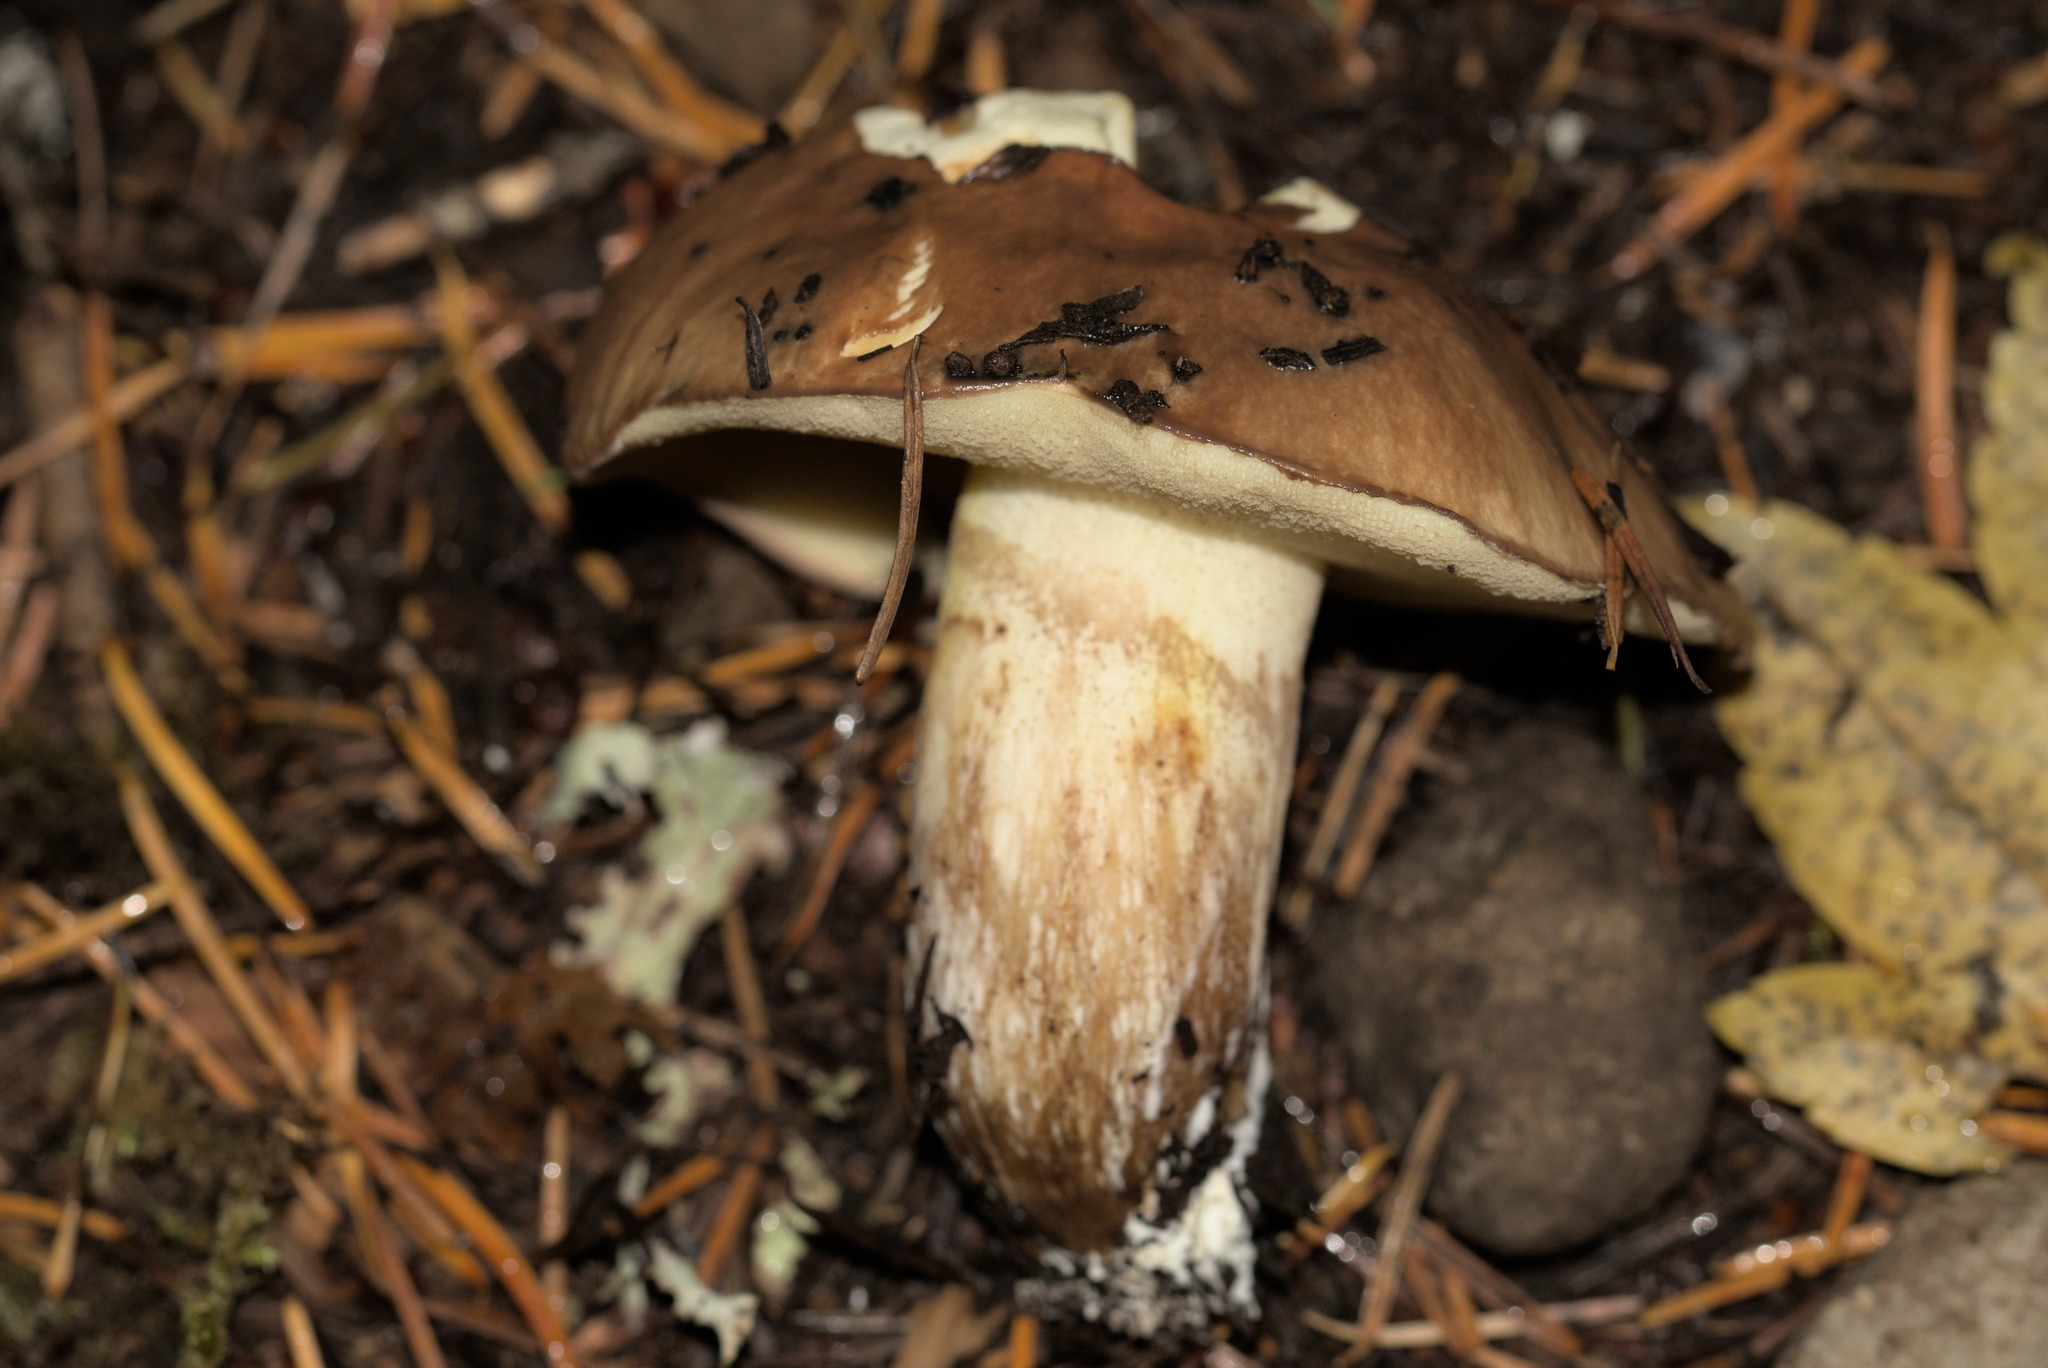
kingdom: Fungi
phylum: Basidiomycota
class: Agaricomycetes
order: Boletales
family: Suillaceae
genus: Suillus
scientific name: Suillus punctatipes
